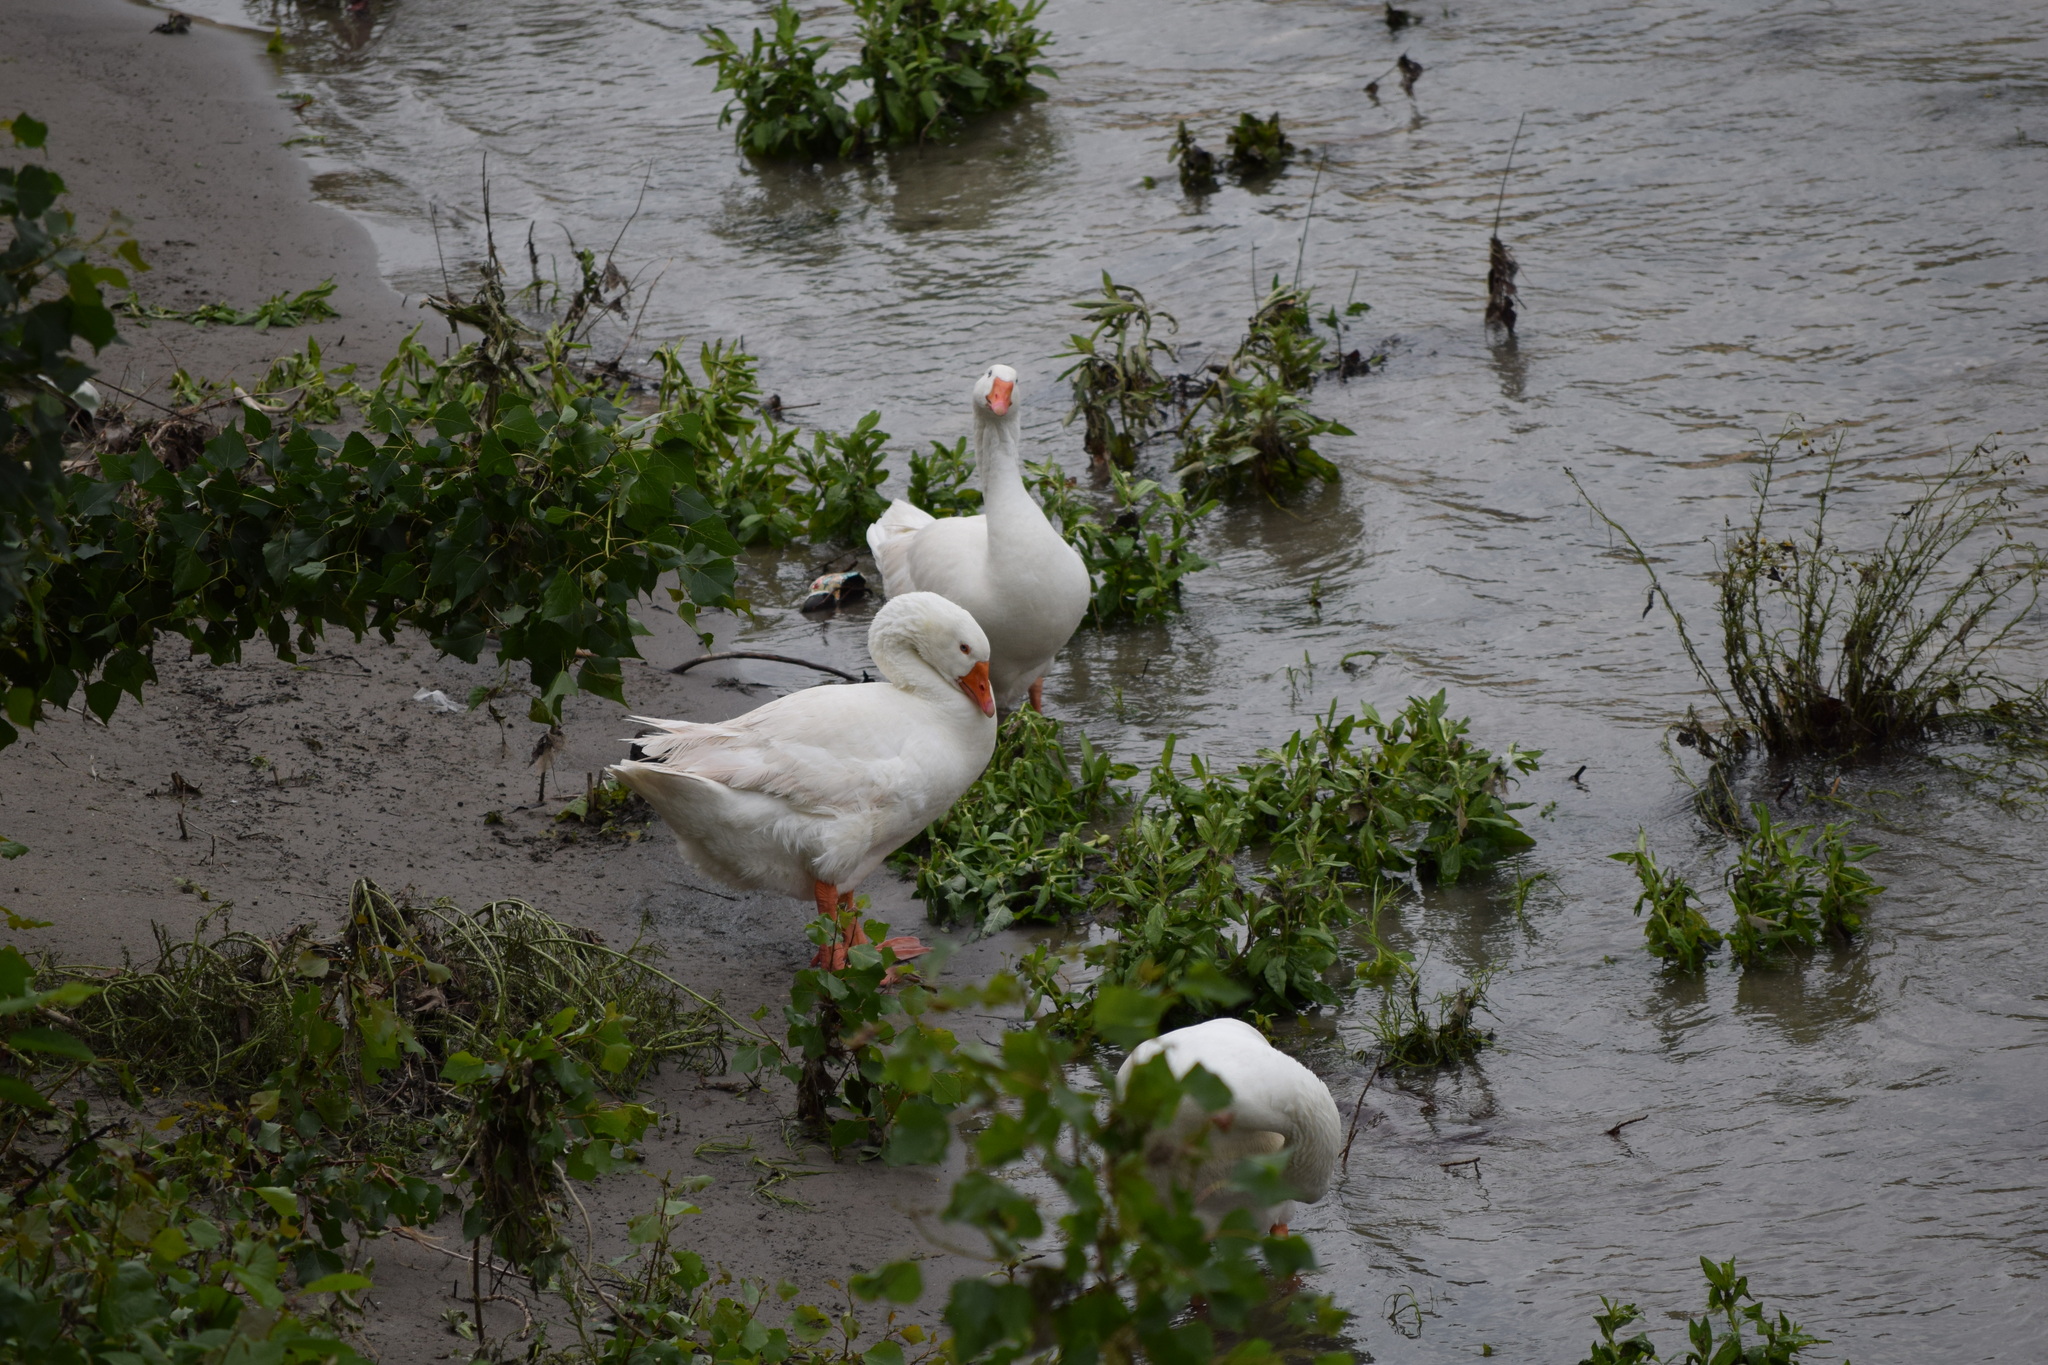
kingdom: Animalia
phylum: Chordata
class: Aves
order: Anseriformes
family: Anatidae
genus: Anser
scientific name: Anser anser
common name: Greylag goose
